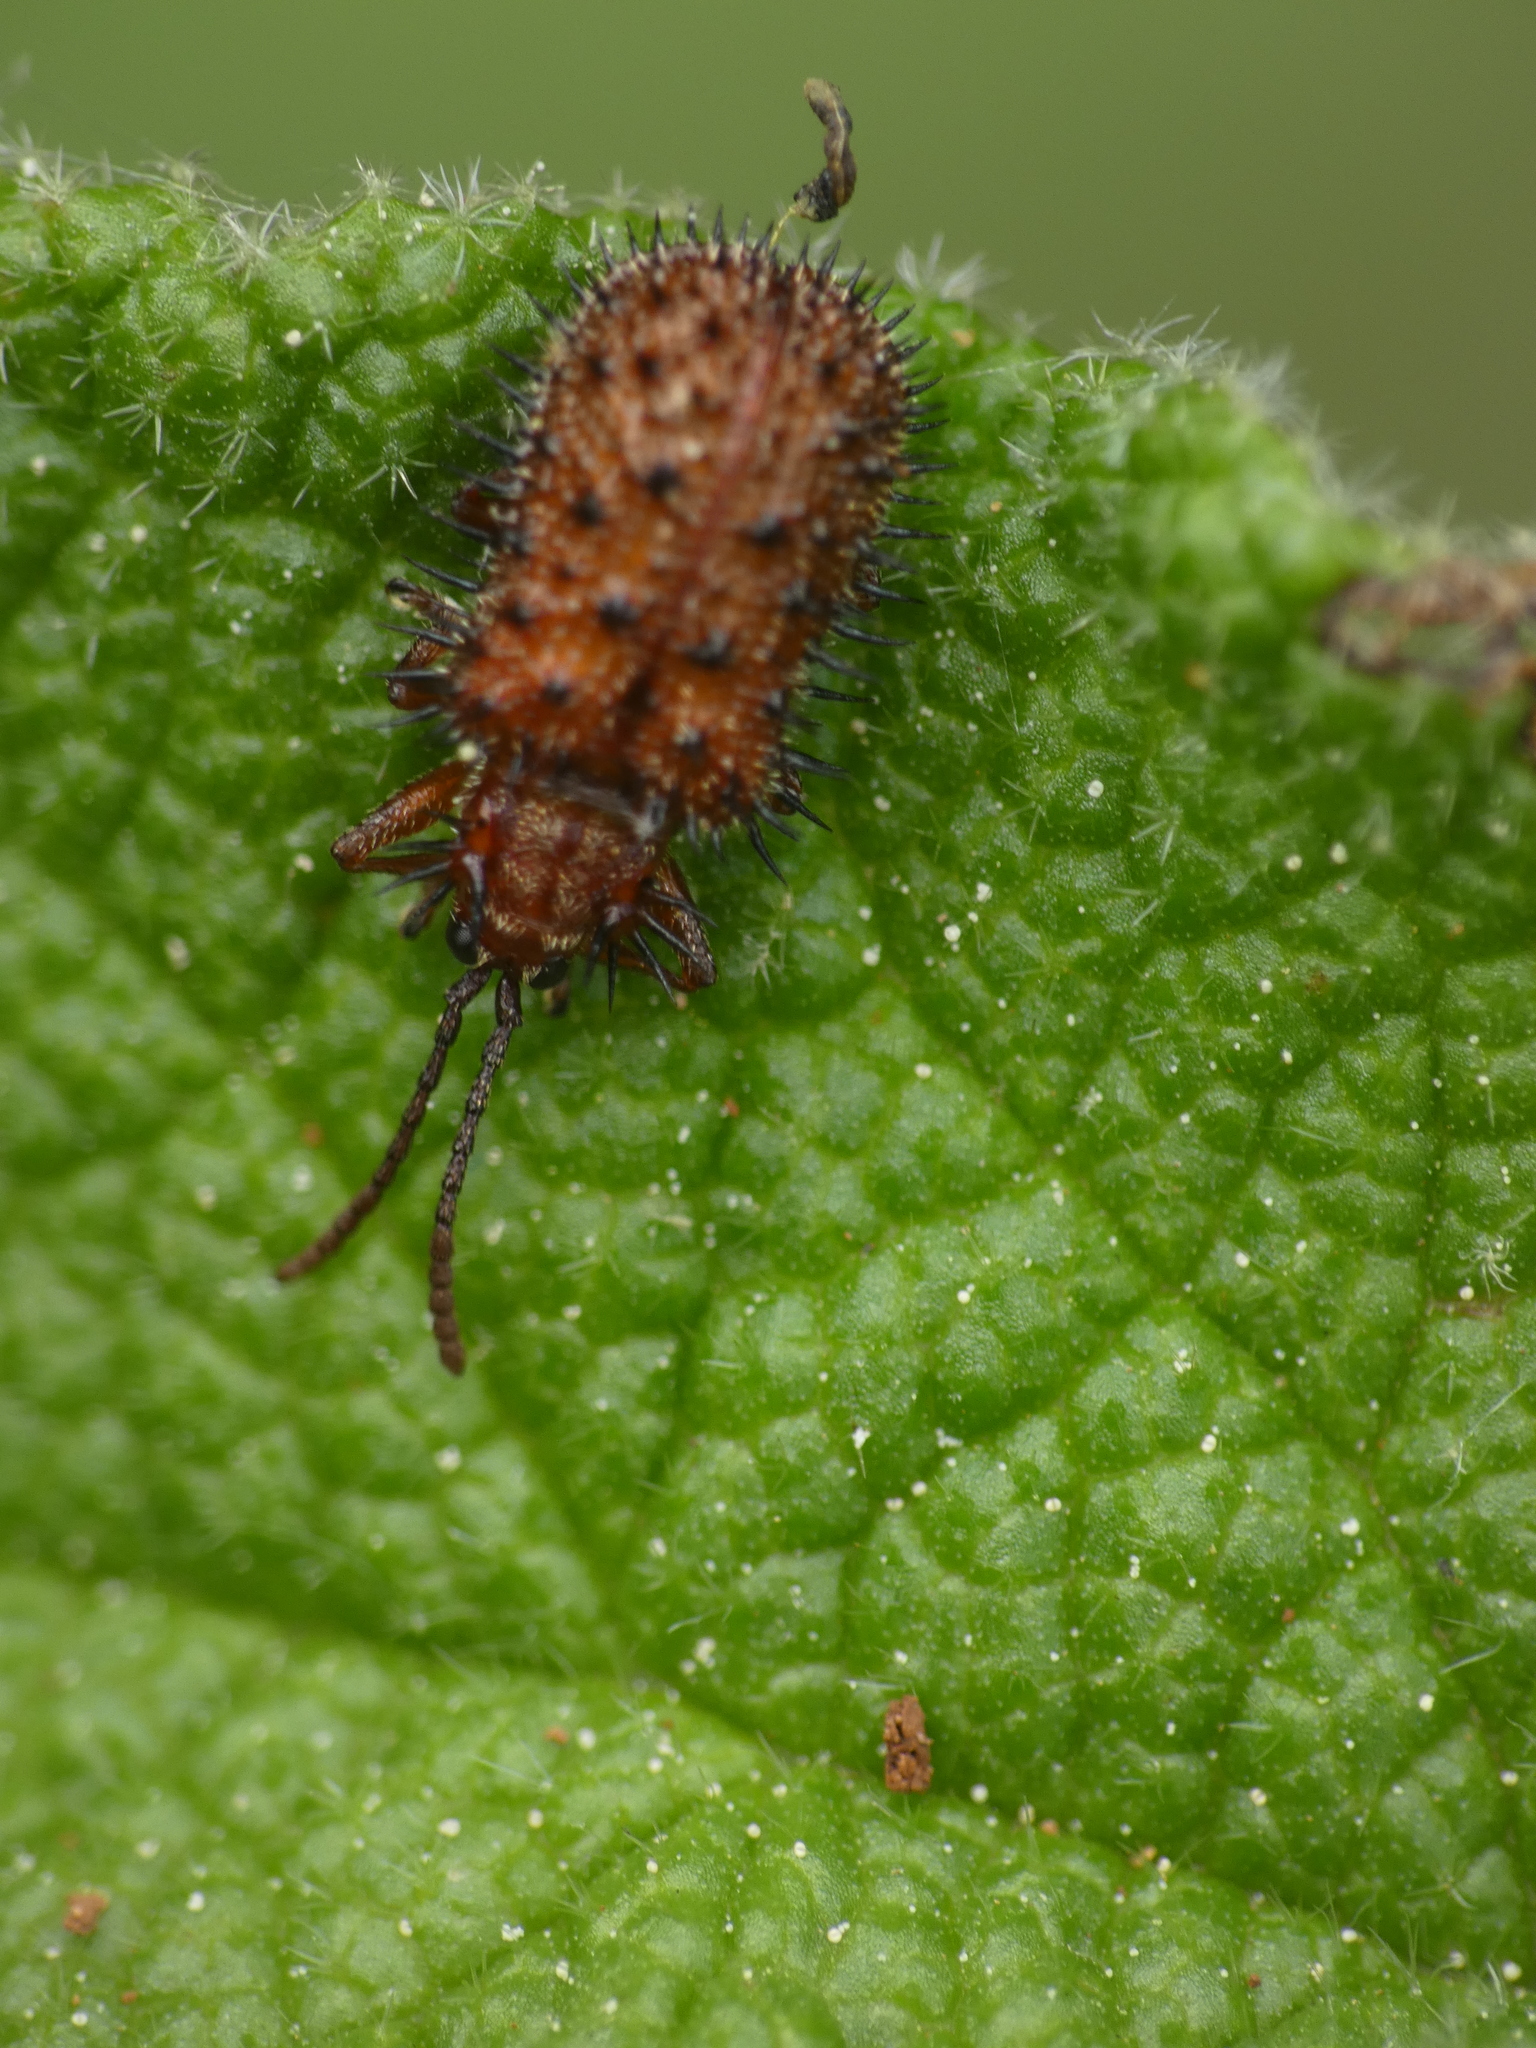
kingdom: Animalia
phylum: Arthropoda
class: Insecta
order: Coleoptera
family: Chrysomelidae
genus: Dicladispa
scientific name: Dicladispa testacea
